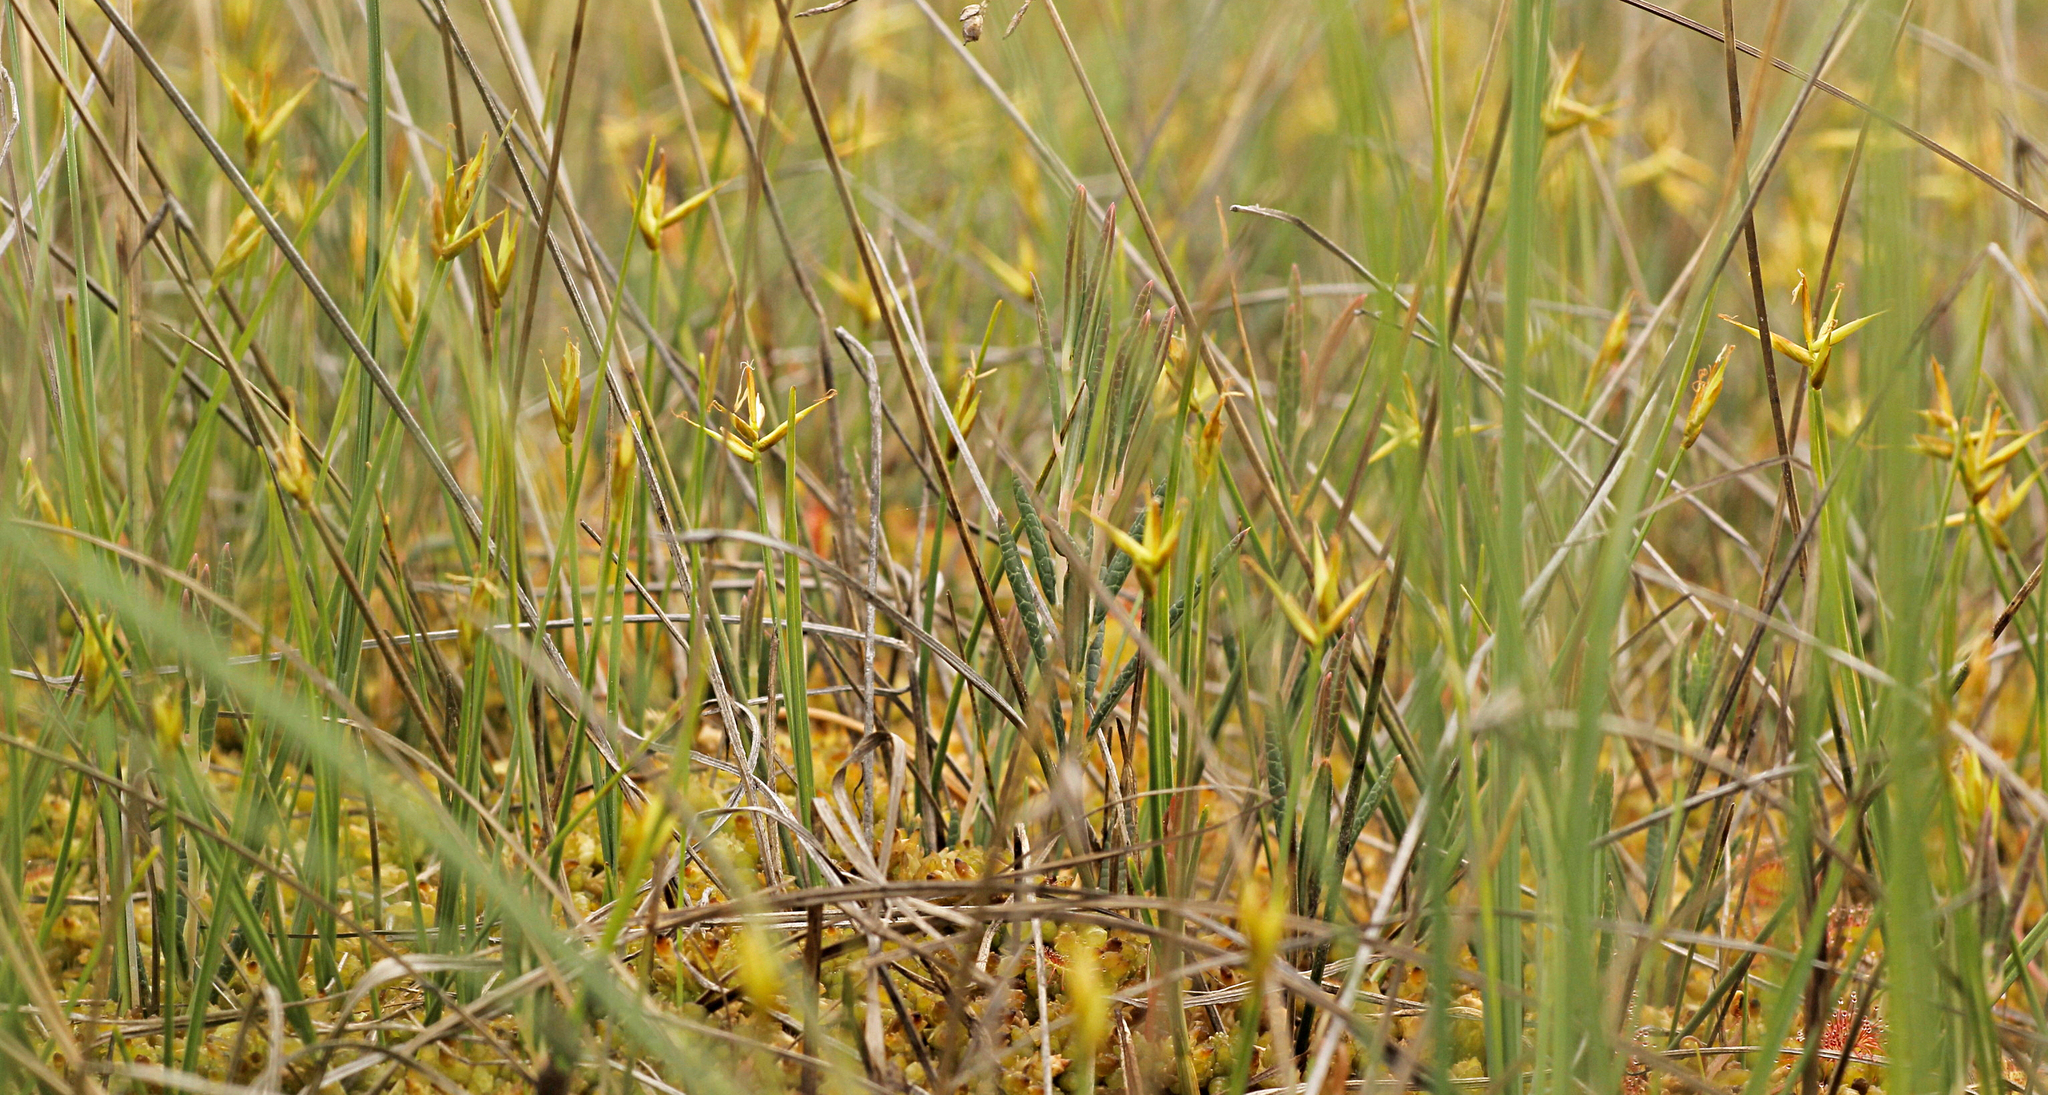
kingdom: Plantae
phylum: Tracheophyta
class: Liliopsida
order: Poales
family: Cyperaceae
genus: Carex
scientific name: Carex pauciflora
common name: Few-flowered sedge
